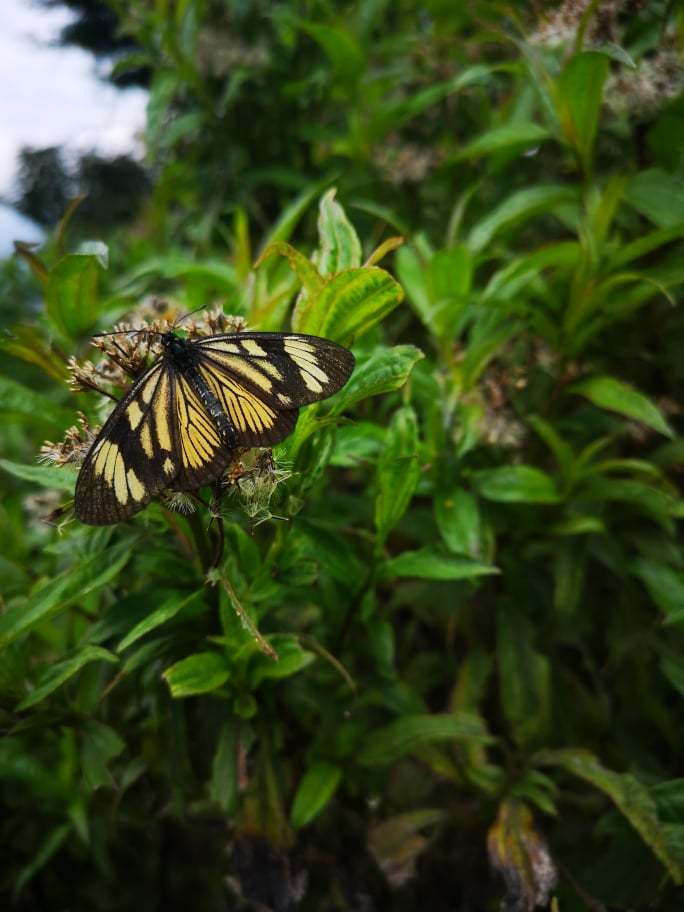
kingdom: Animalia
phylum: Arthropoda
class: Insecta
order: Lepidoptera
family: Nymphalidae
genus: Actinote
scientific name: Actinote anteas
